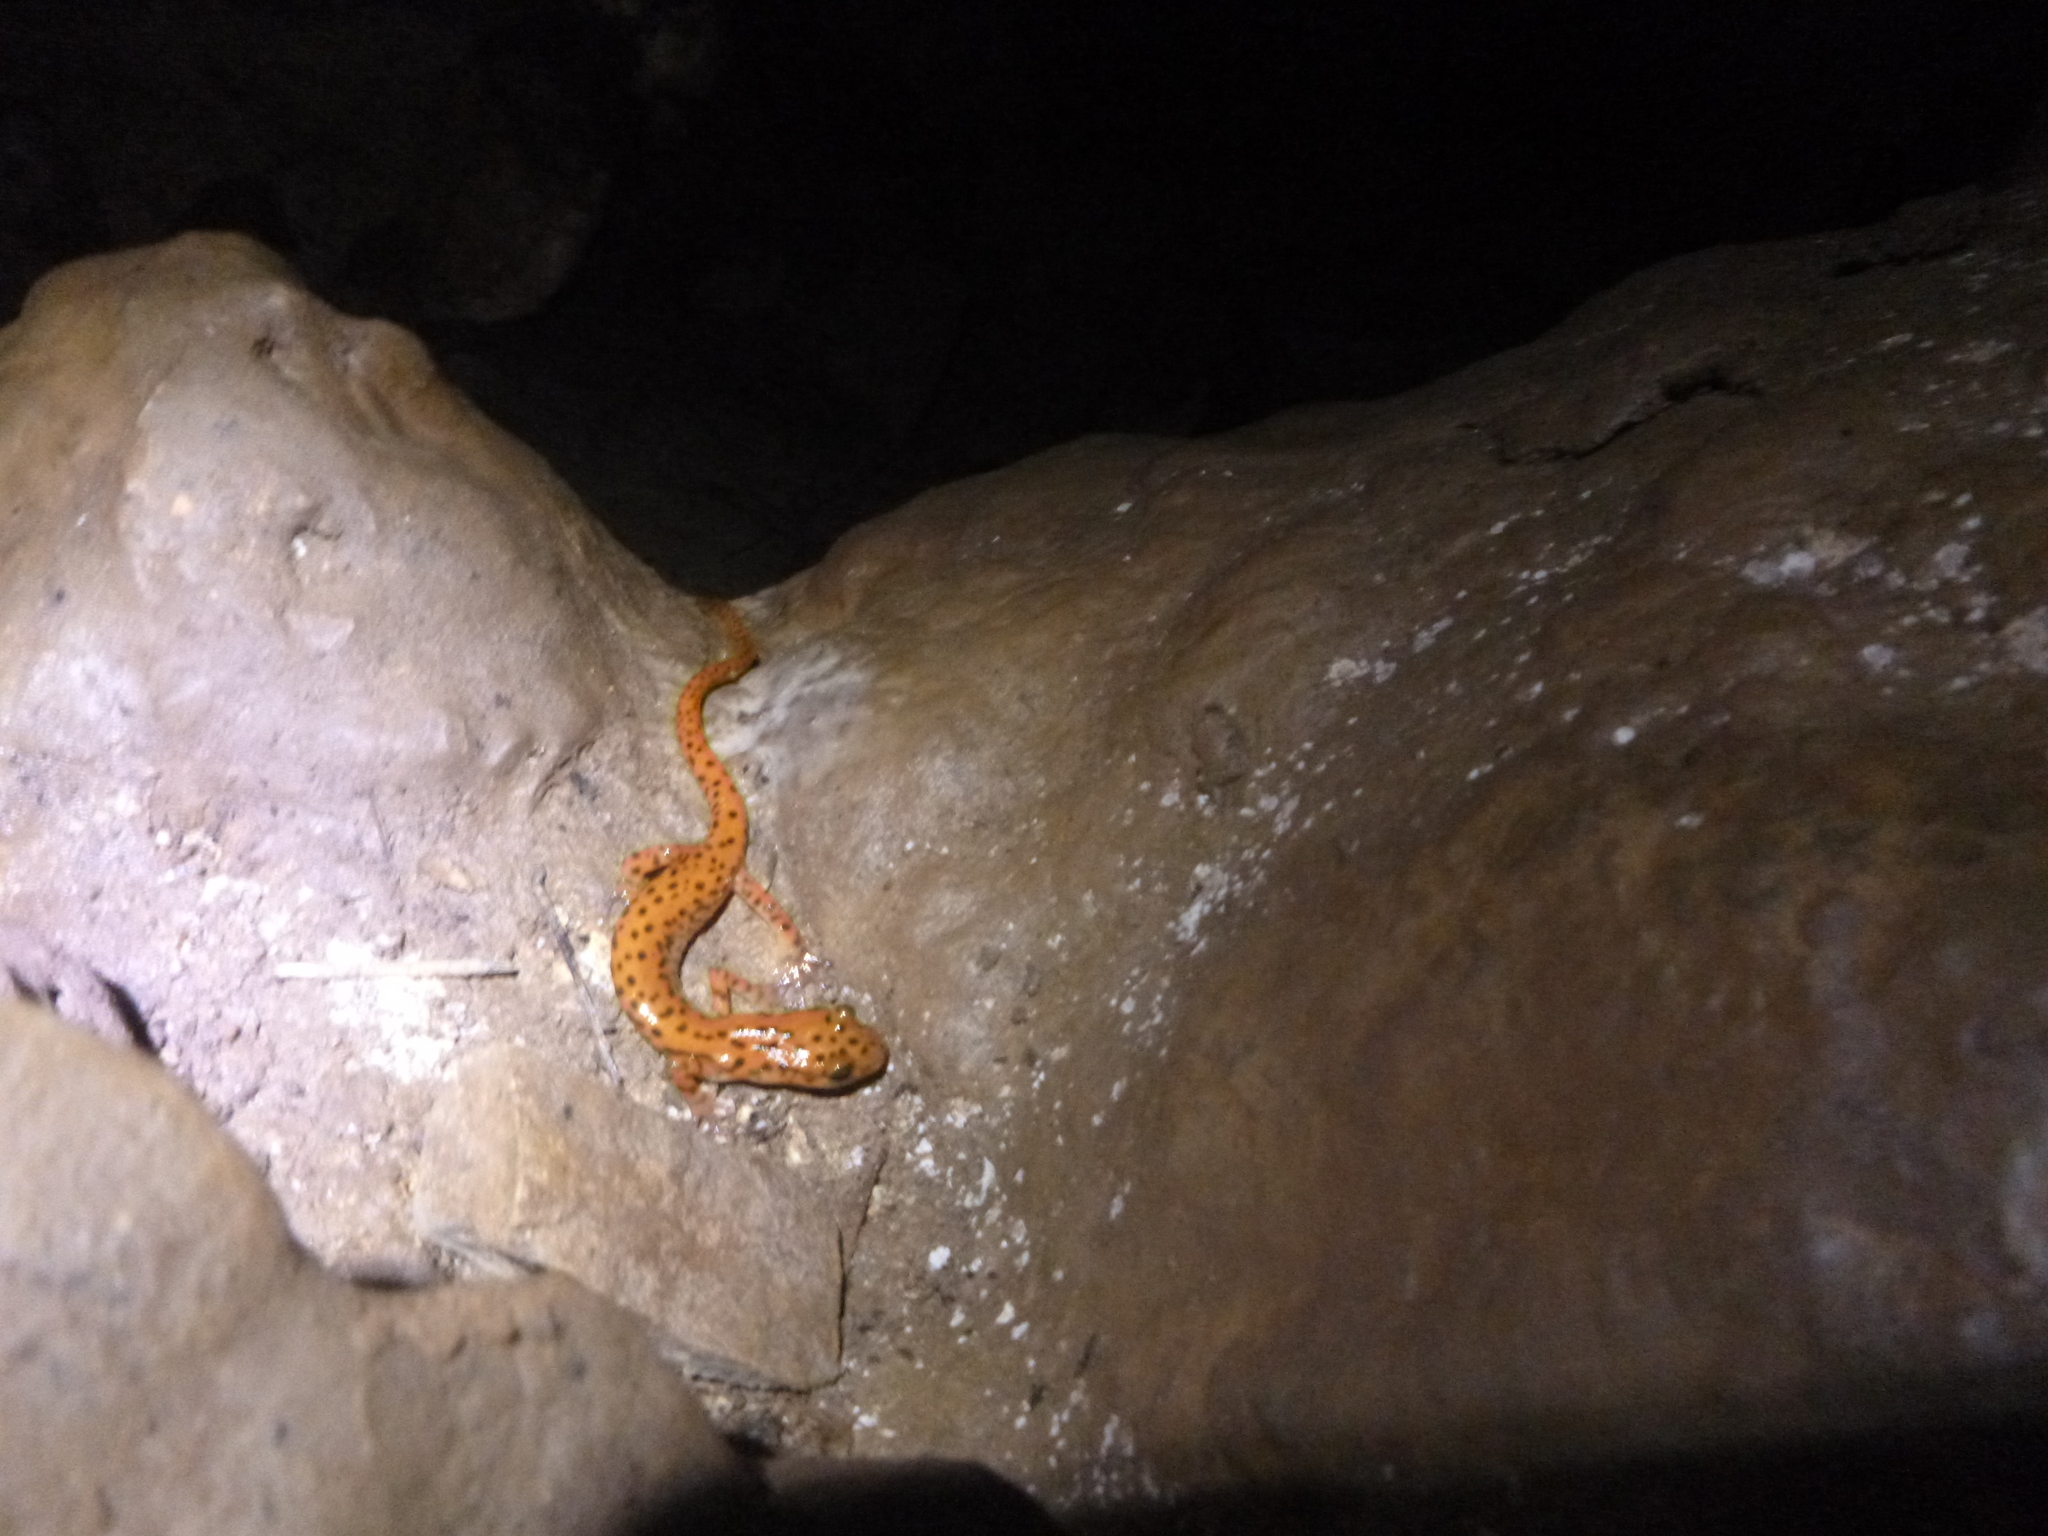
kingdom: Animalia
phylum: Chordata
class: Amphibia
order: Caudata
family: Plethodontidae
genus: Eurycea
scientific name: Eurycea lucifuga
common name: Cave salamander
